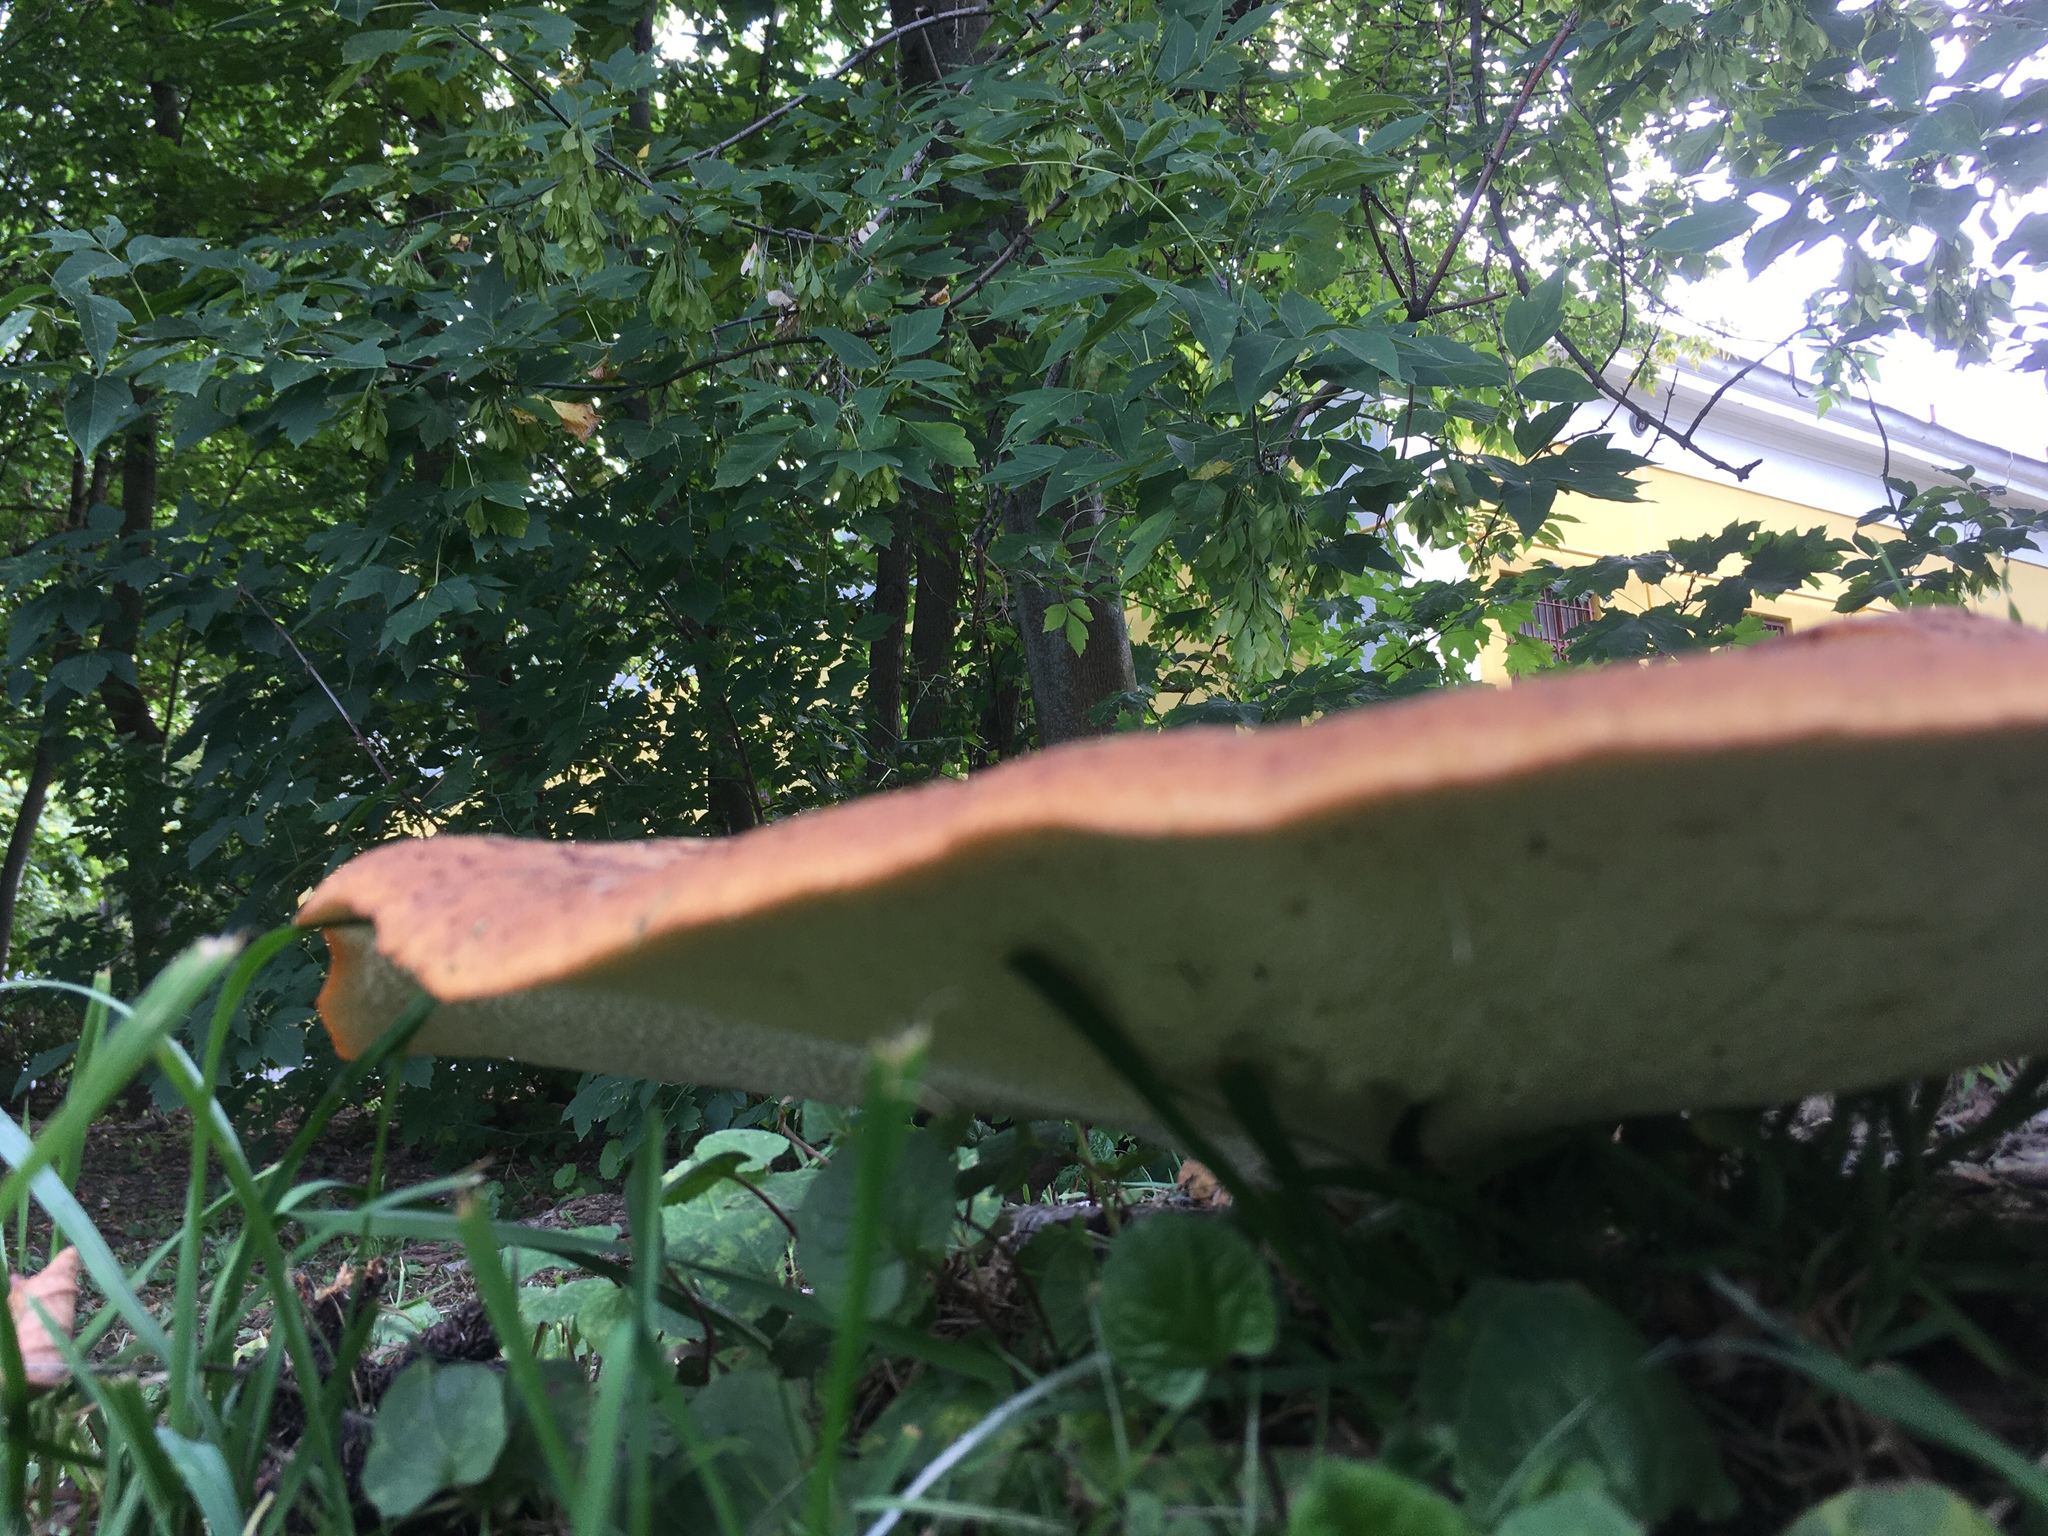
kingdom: Fungi
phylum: Basidiomycota
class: Agaricomycetes
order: Polyporales
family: Polyporaceae
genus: Cerioporus
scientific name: Cerioporus squamosus
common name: Dryad's saddle
